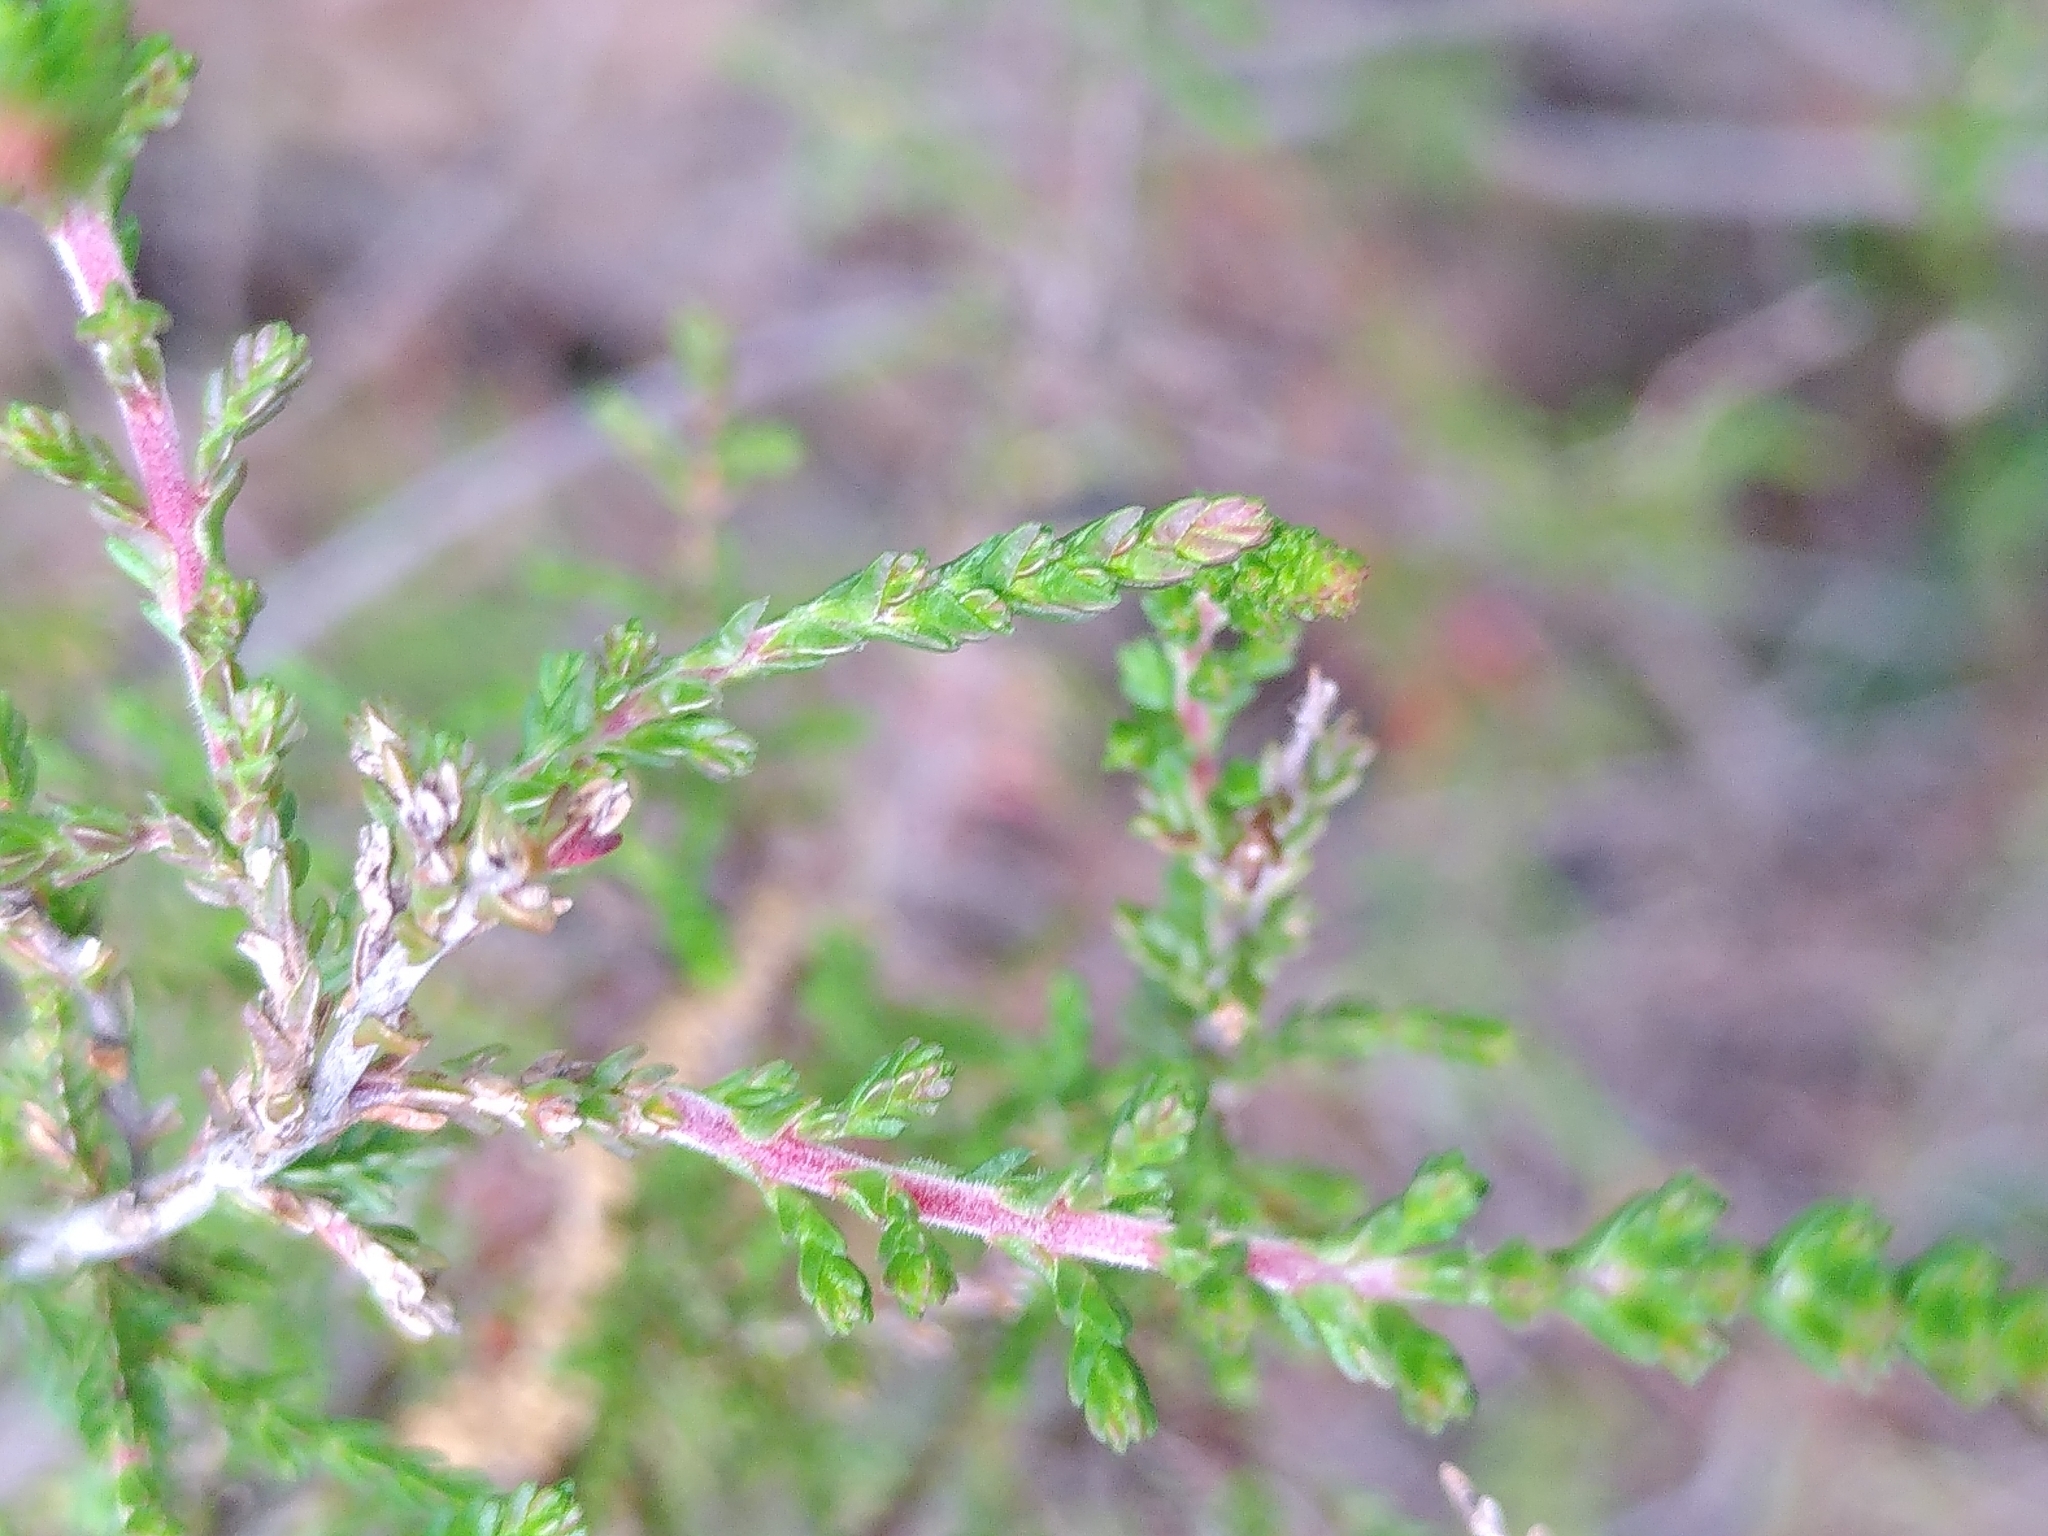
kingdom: Plantae
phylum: Tracheophyta
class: Magnoliopsida
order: Ericales
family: Ericaceae
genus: Calluna
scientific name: Calluna vulgaris
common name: Heather
